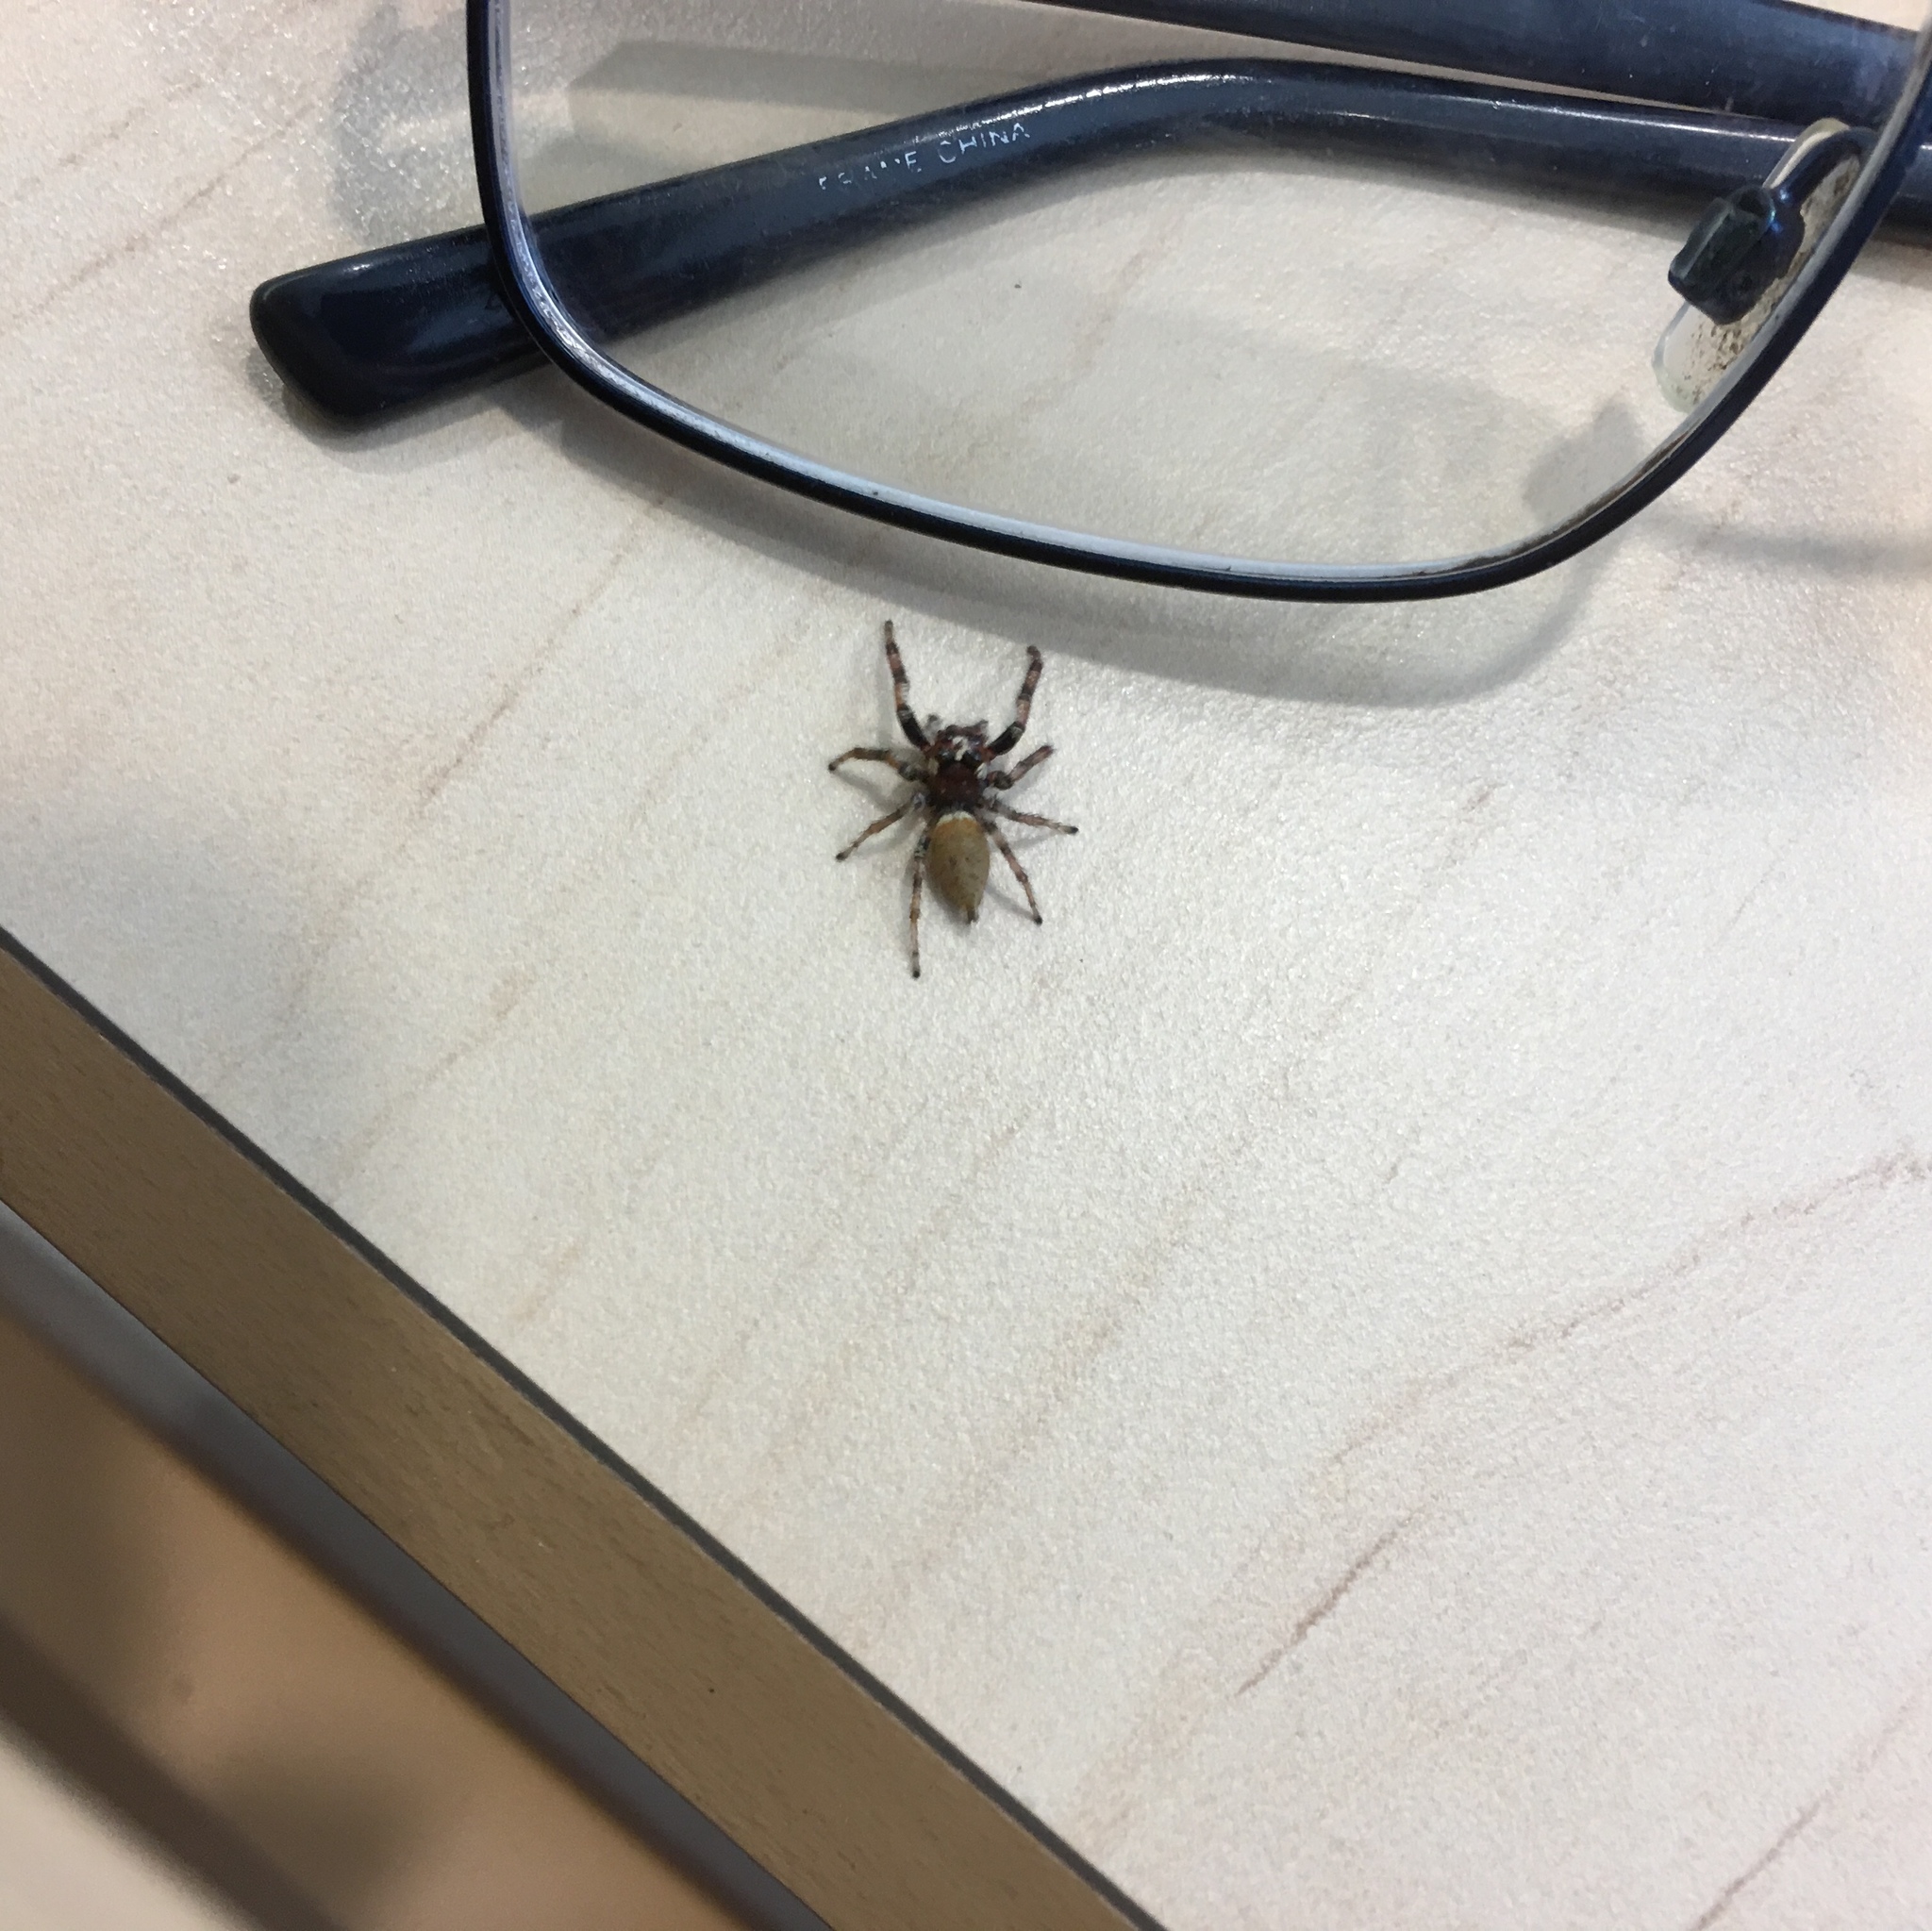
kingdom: Animalia
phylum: Arthropoda
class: Arachnida
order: Araneae
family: Salticidae
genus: Colonus
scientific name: Colonus hesperus
